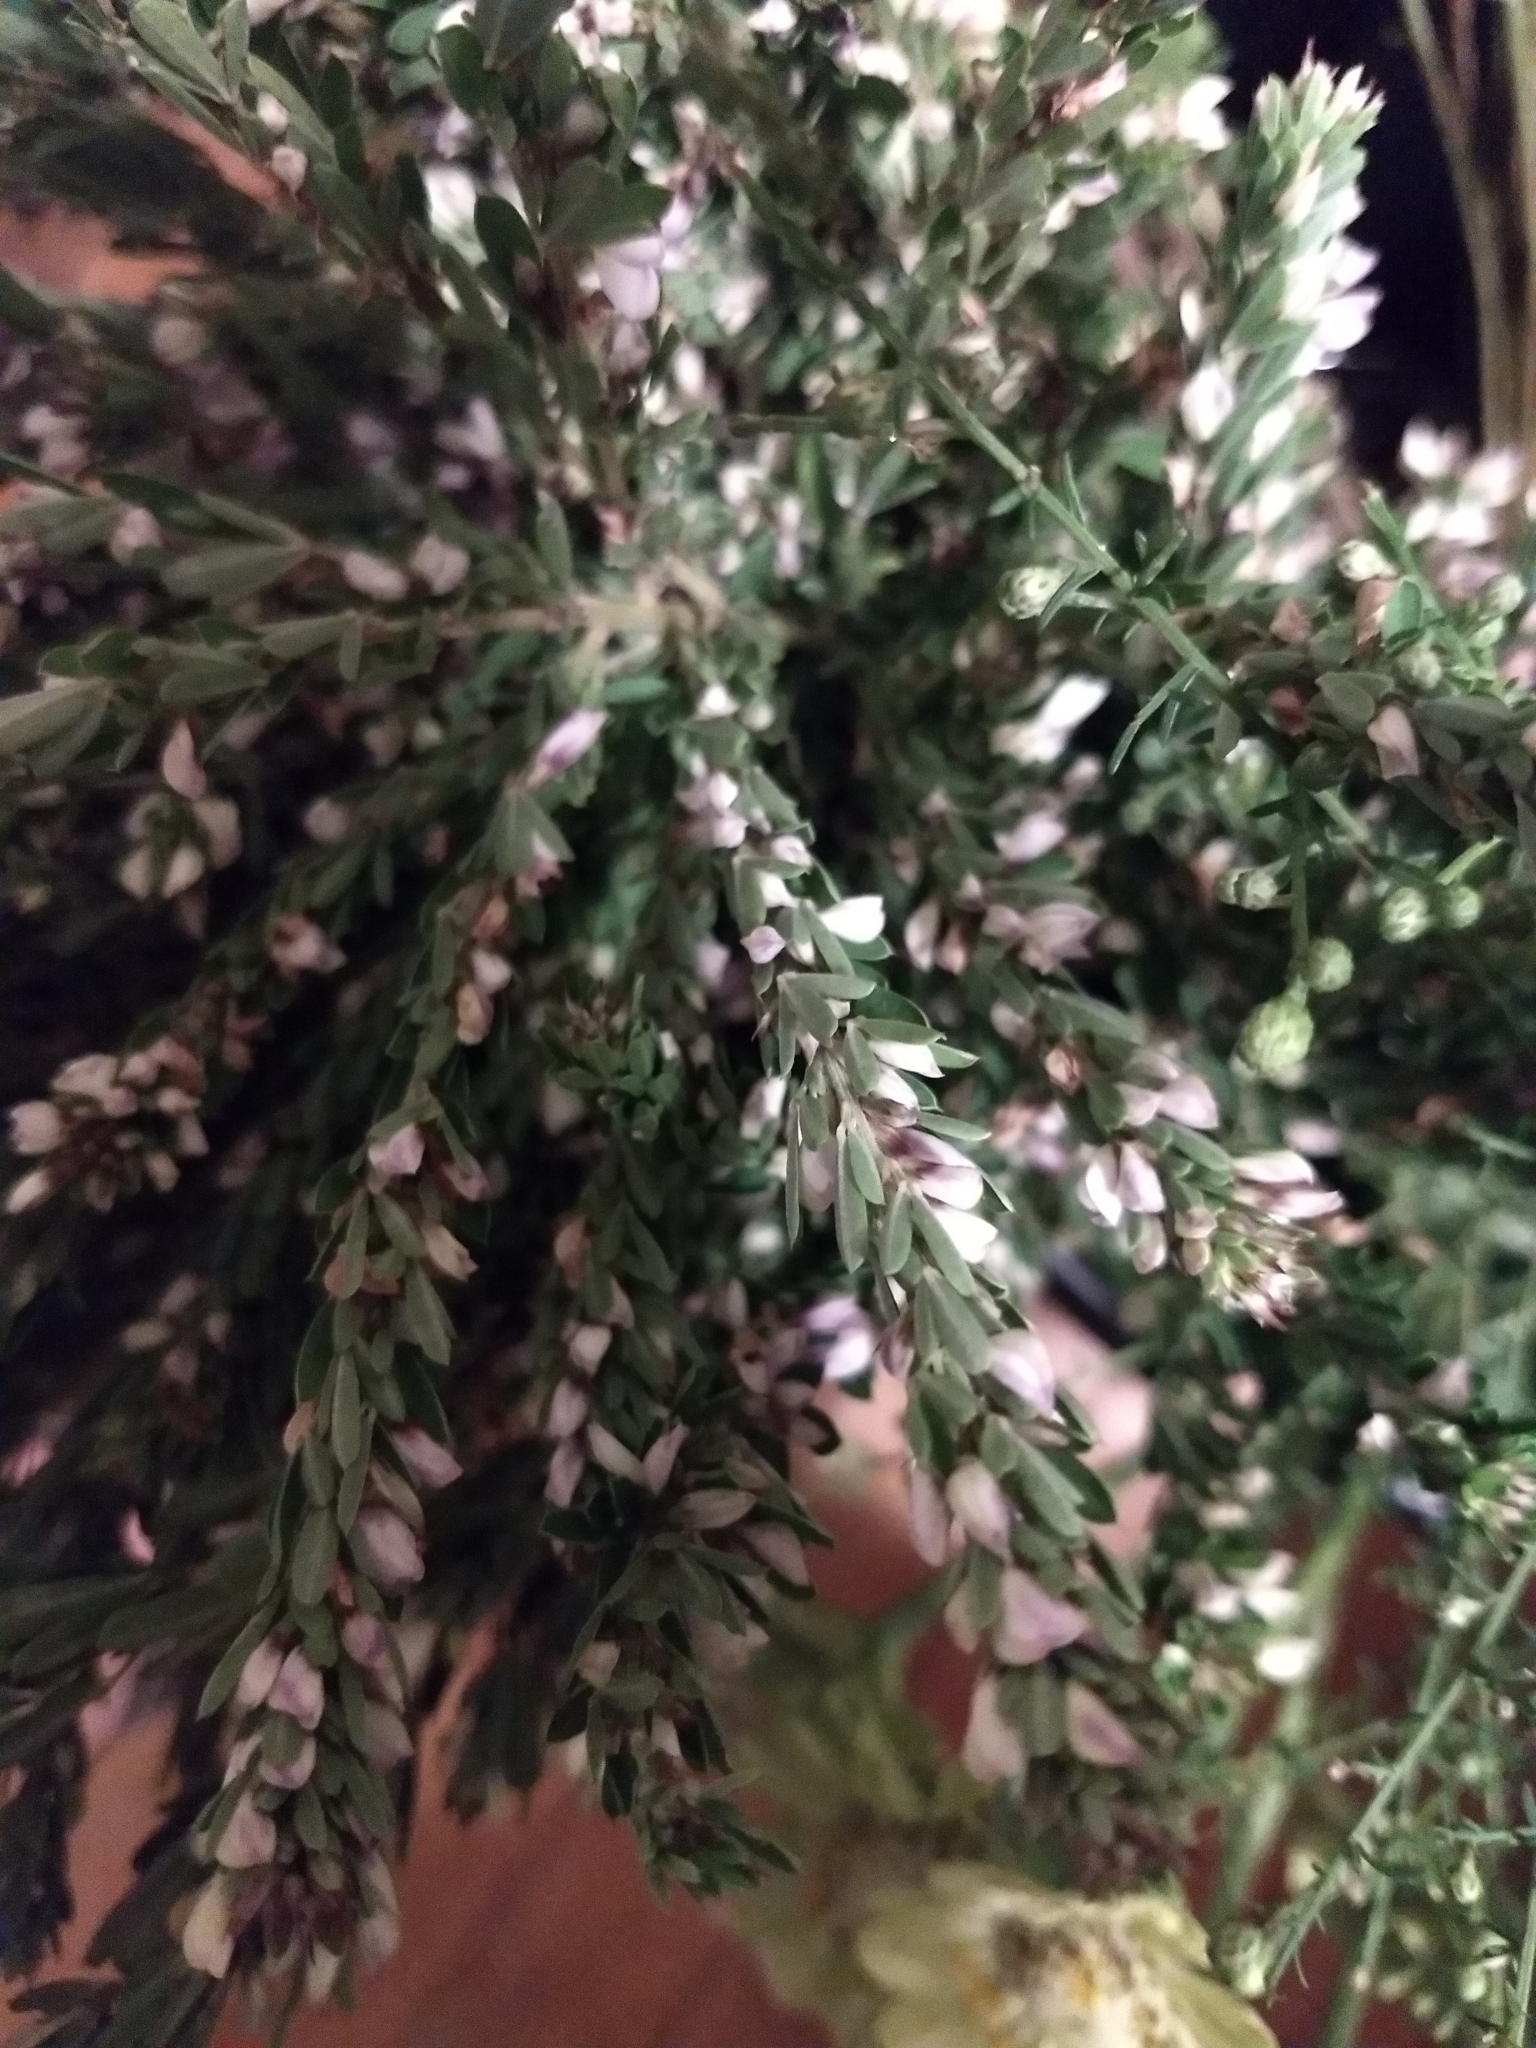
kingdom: Plantae
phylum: Tracheophyta
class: Magnoliopsida
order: Fabales
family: Fabaceae
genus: Lespedeza
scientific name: Lespedeza cuneata
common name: Chinese bush-clover
